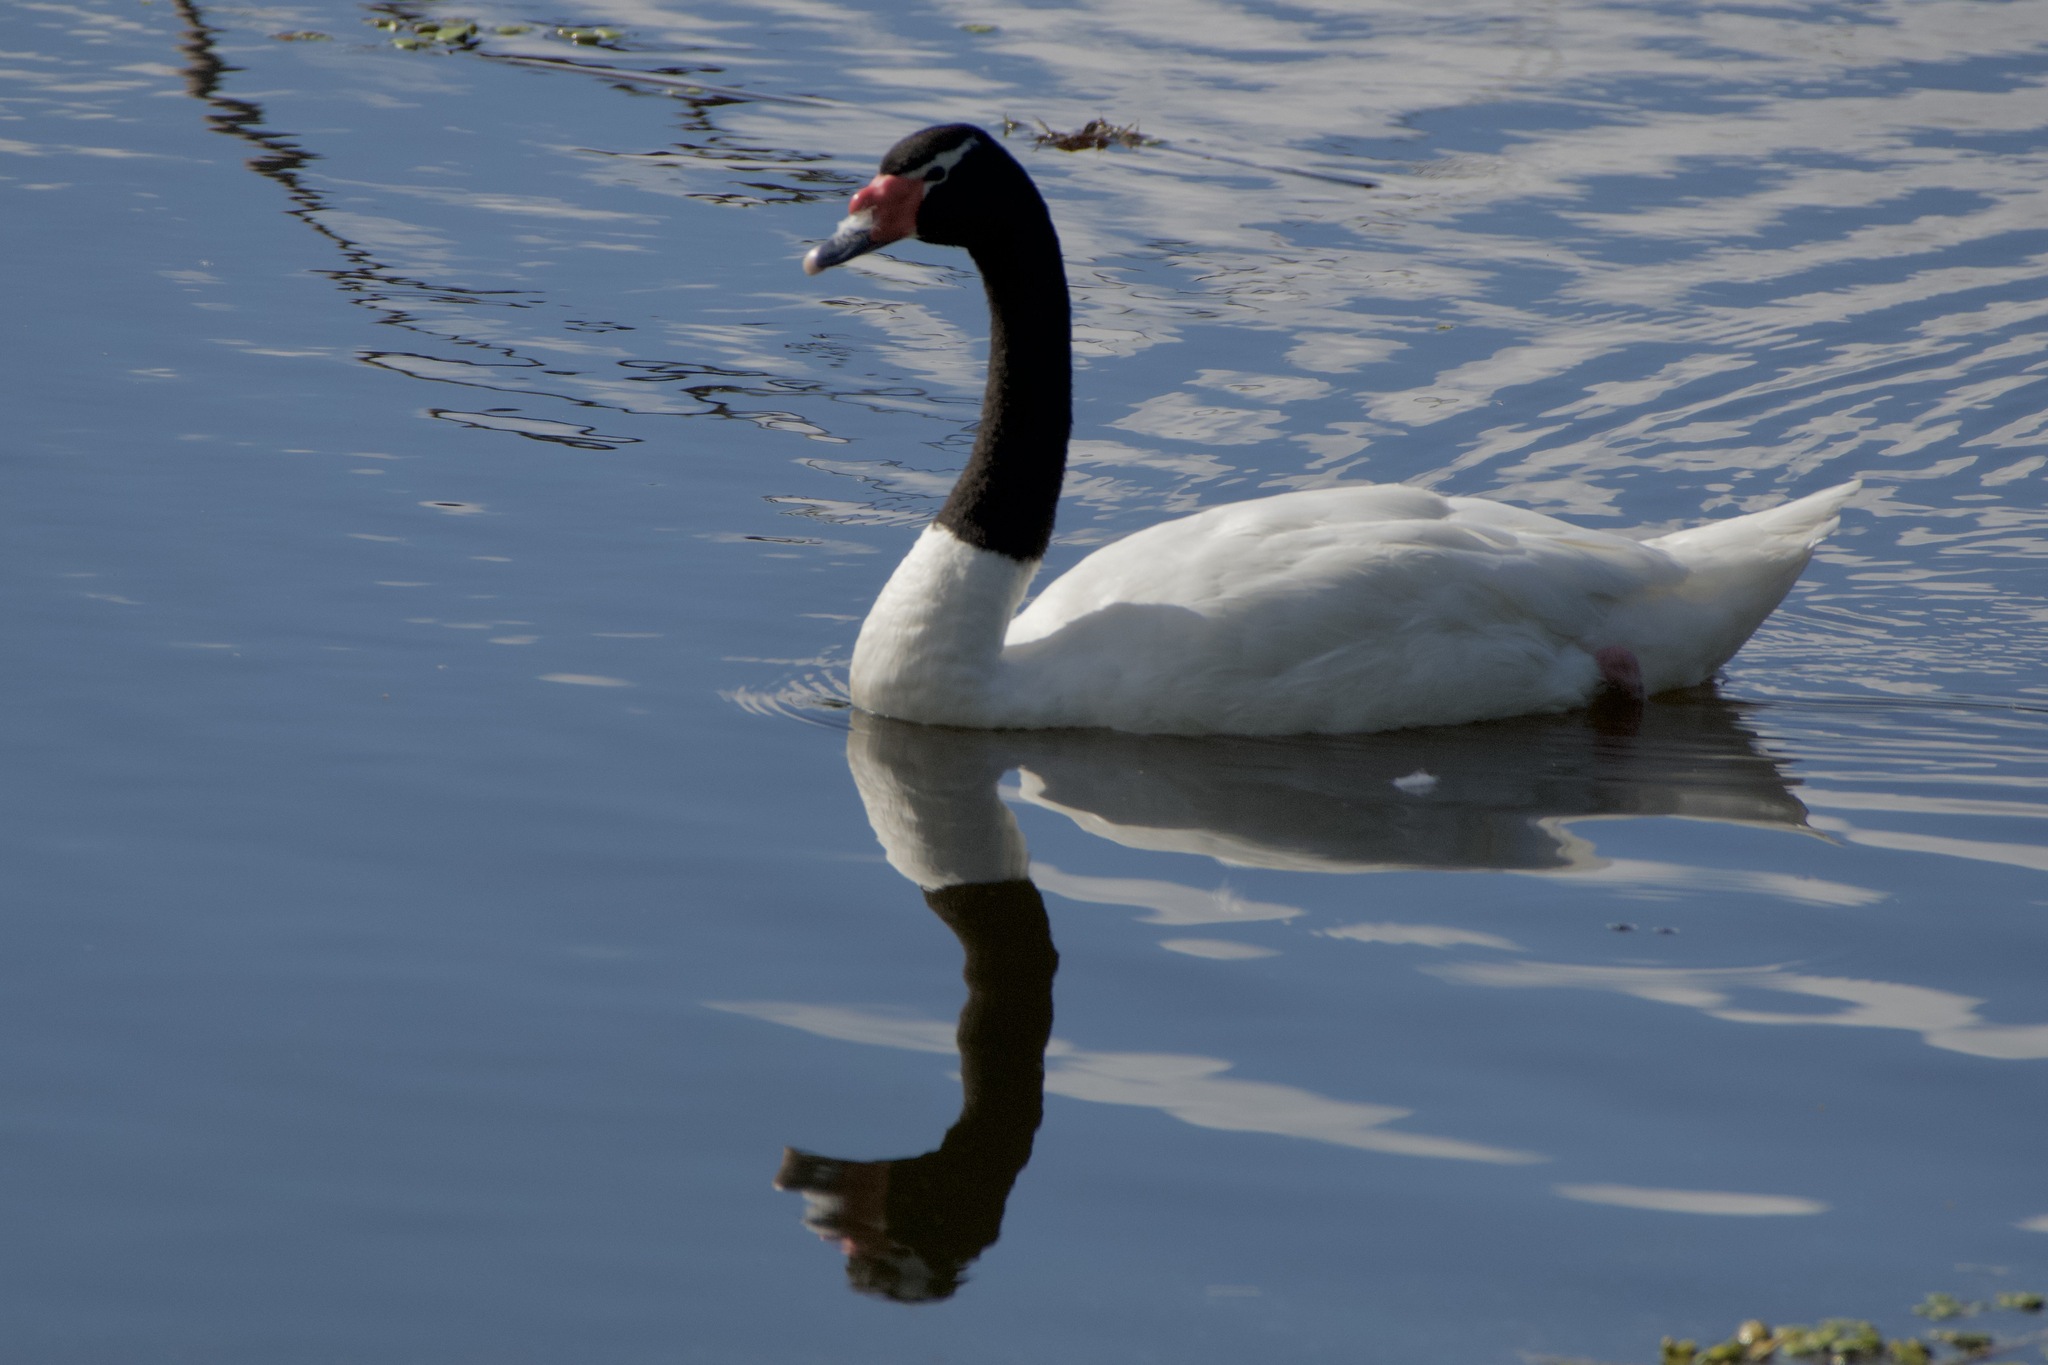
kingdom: Animalia
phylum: Chordata
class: Aves
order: Anseriformes
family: Anatidae
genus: Cygnus
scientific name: Cygnus melancoryphus
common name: Black-necked swan
